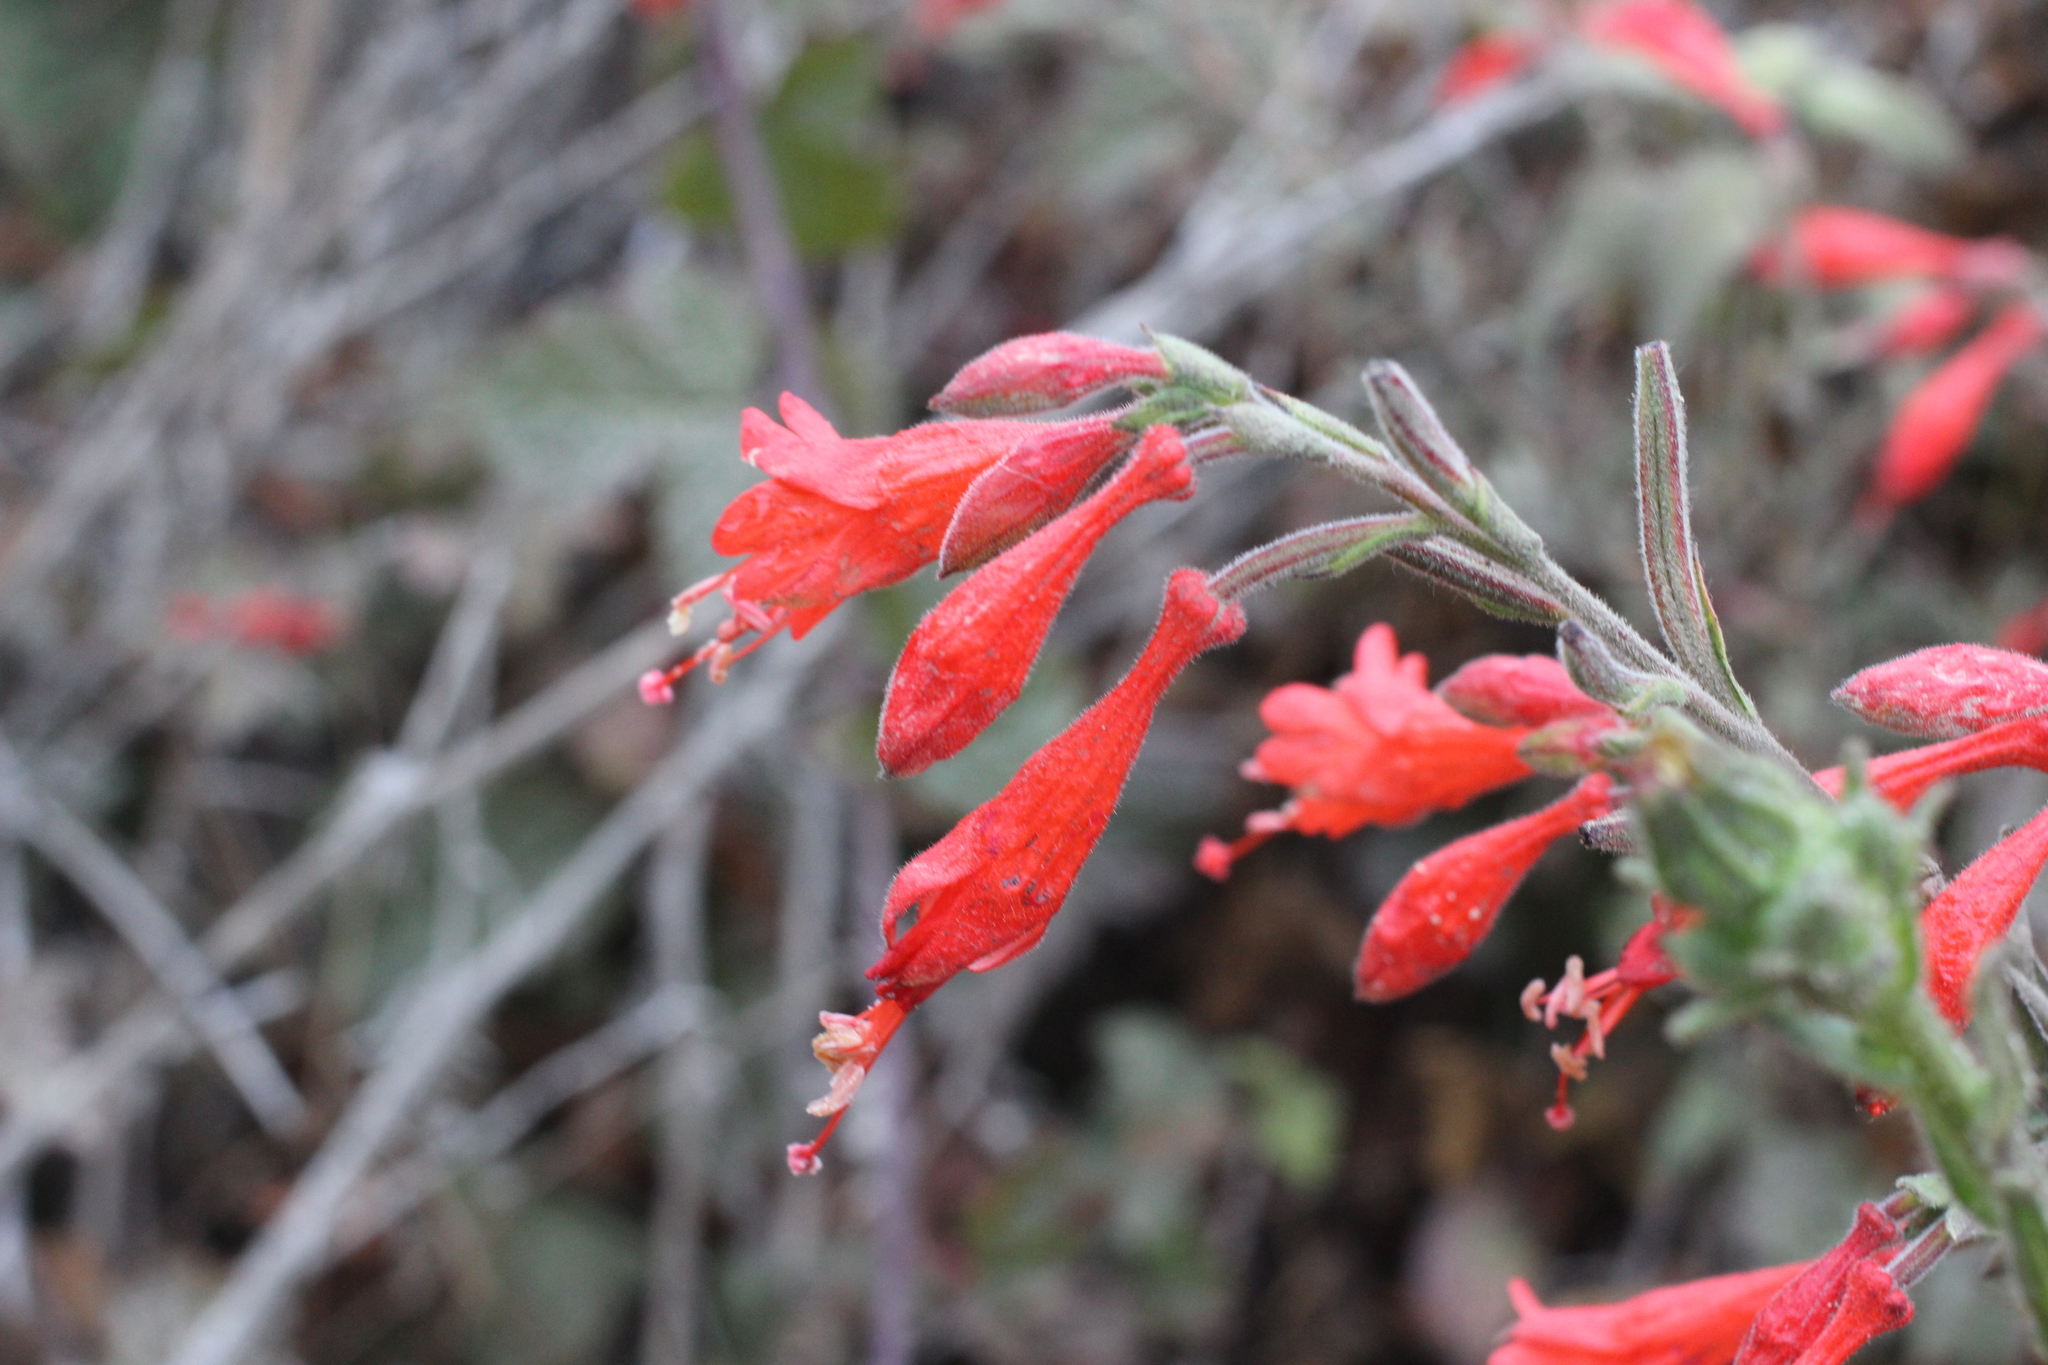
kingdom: Plantae
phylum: Tracheophyta
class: Magnoliopsida
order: Myrtales
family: Onagraceae
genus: Epilobium
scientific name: Epilobium canum
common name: California-fuchsia
